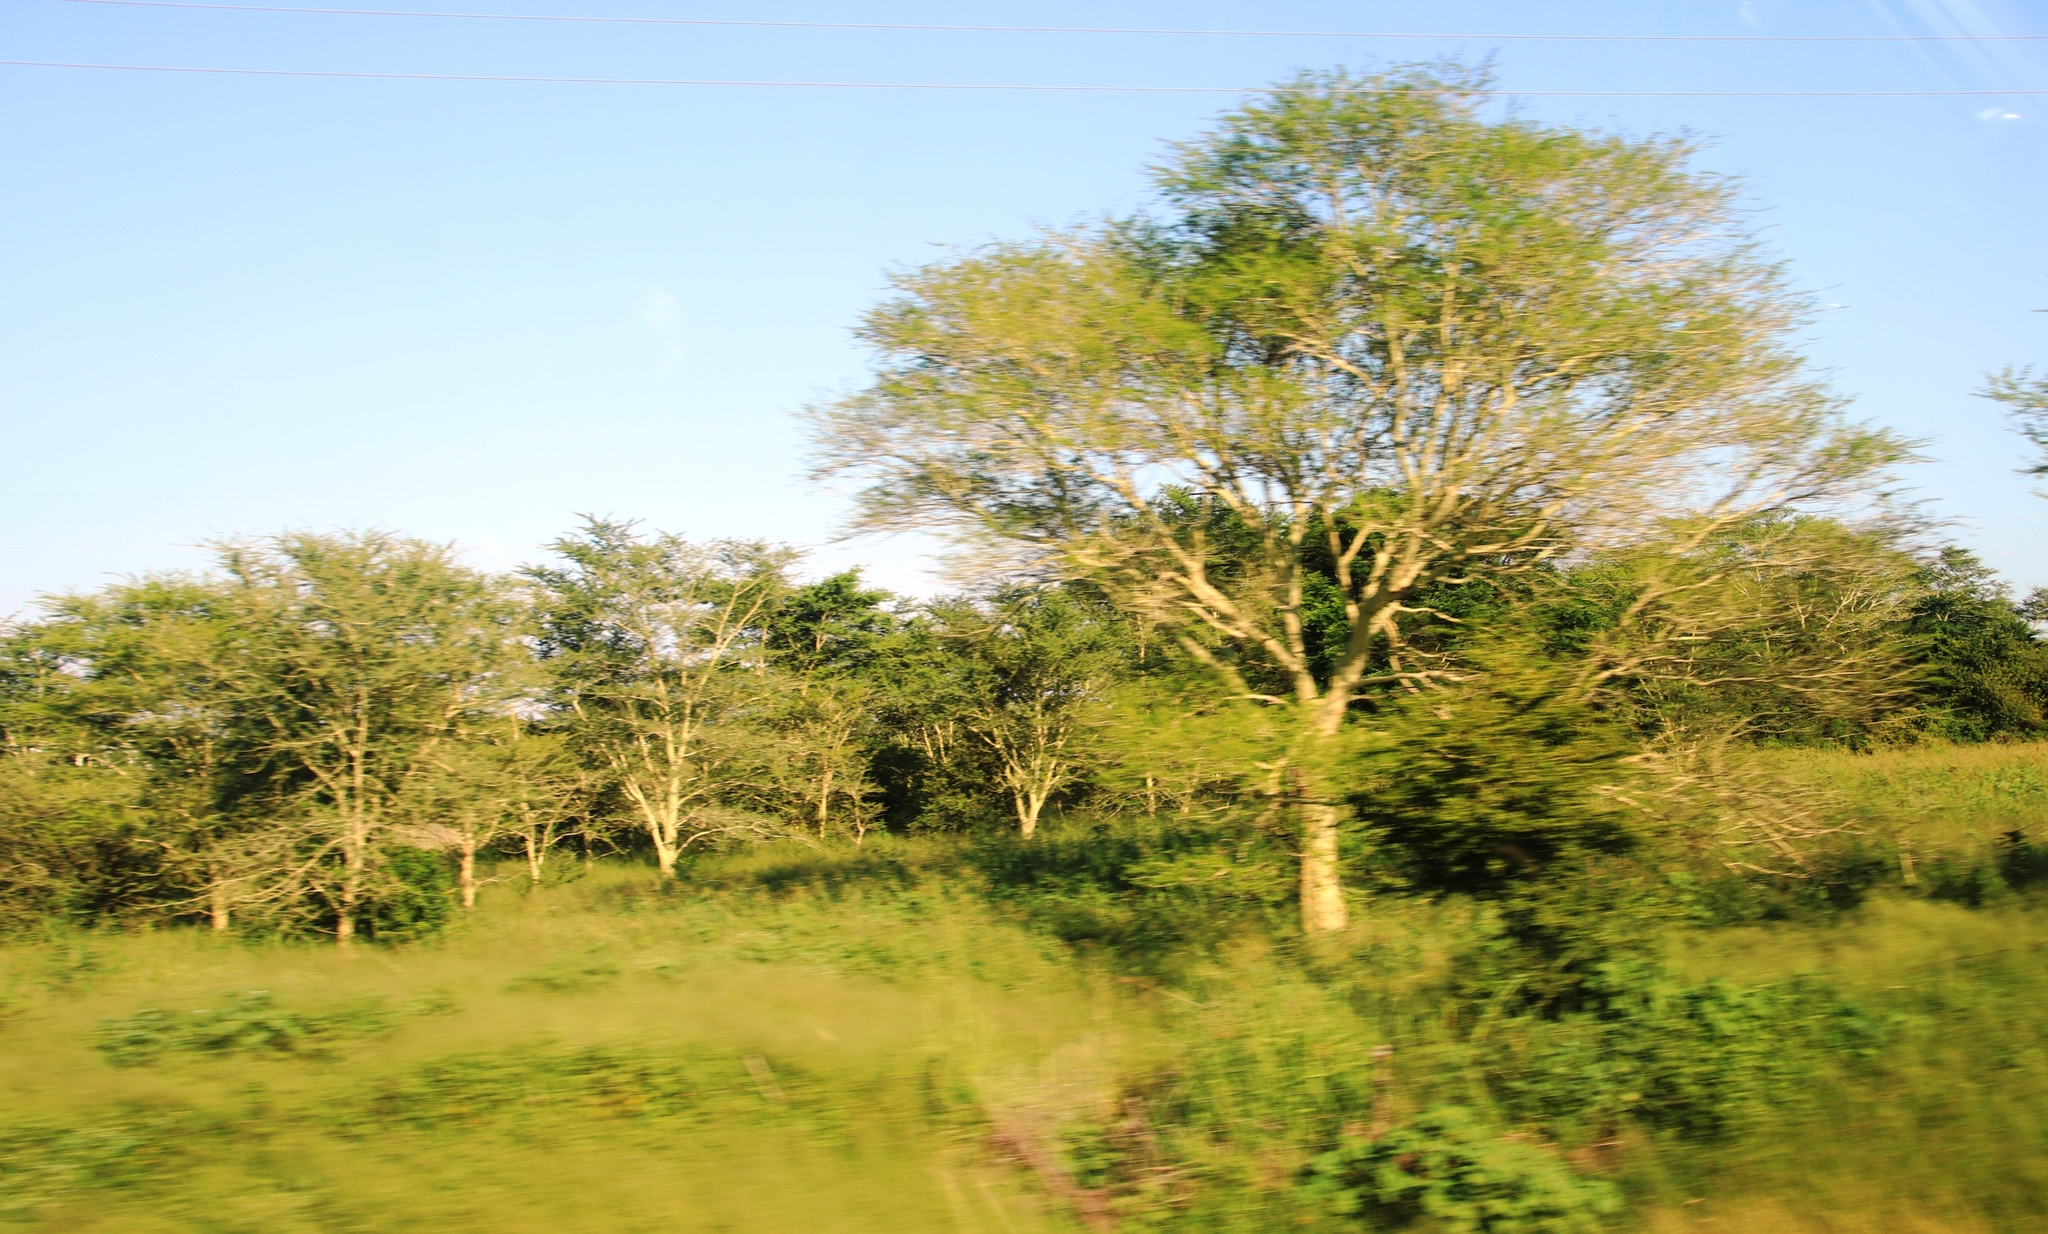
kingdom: Plantae
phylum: Tracheophyta
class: Magnoliopsida
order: Fabales
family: Fabaceae
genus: Vachellia
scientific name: Vachellia xanthophloea
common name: Fever tree
